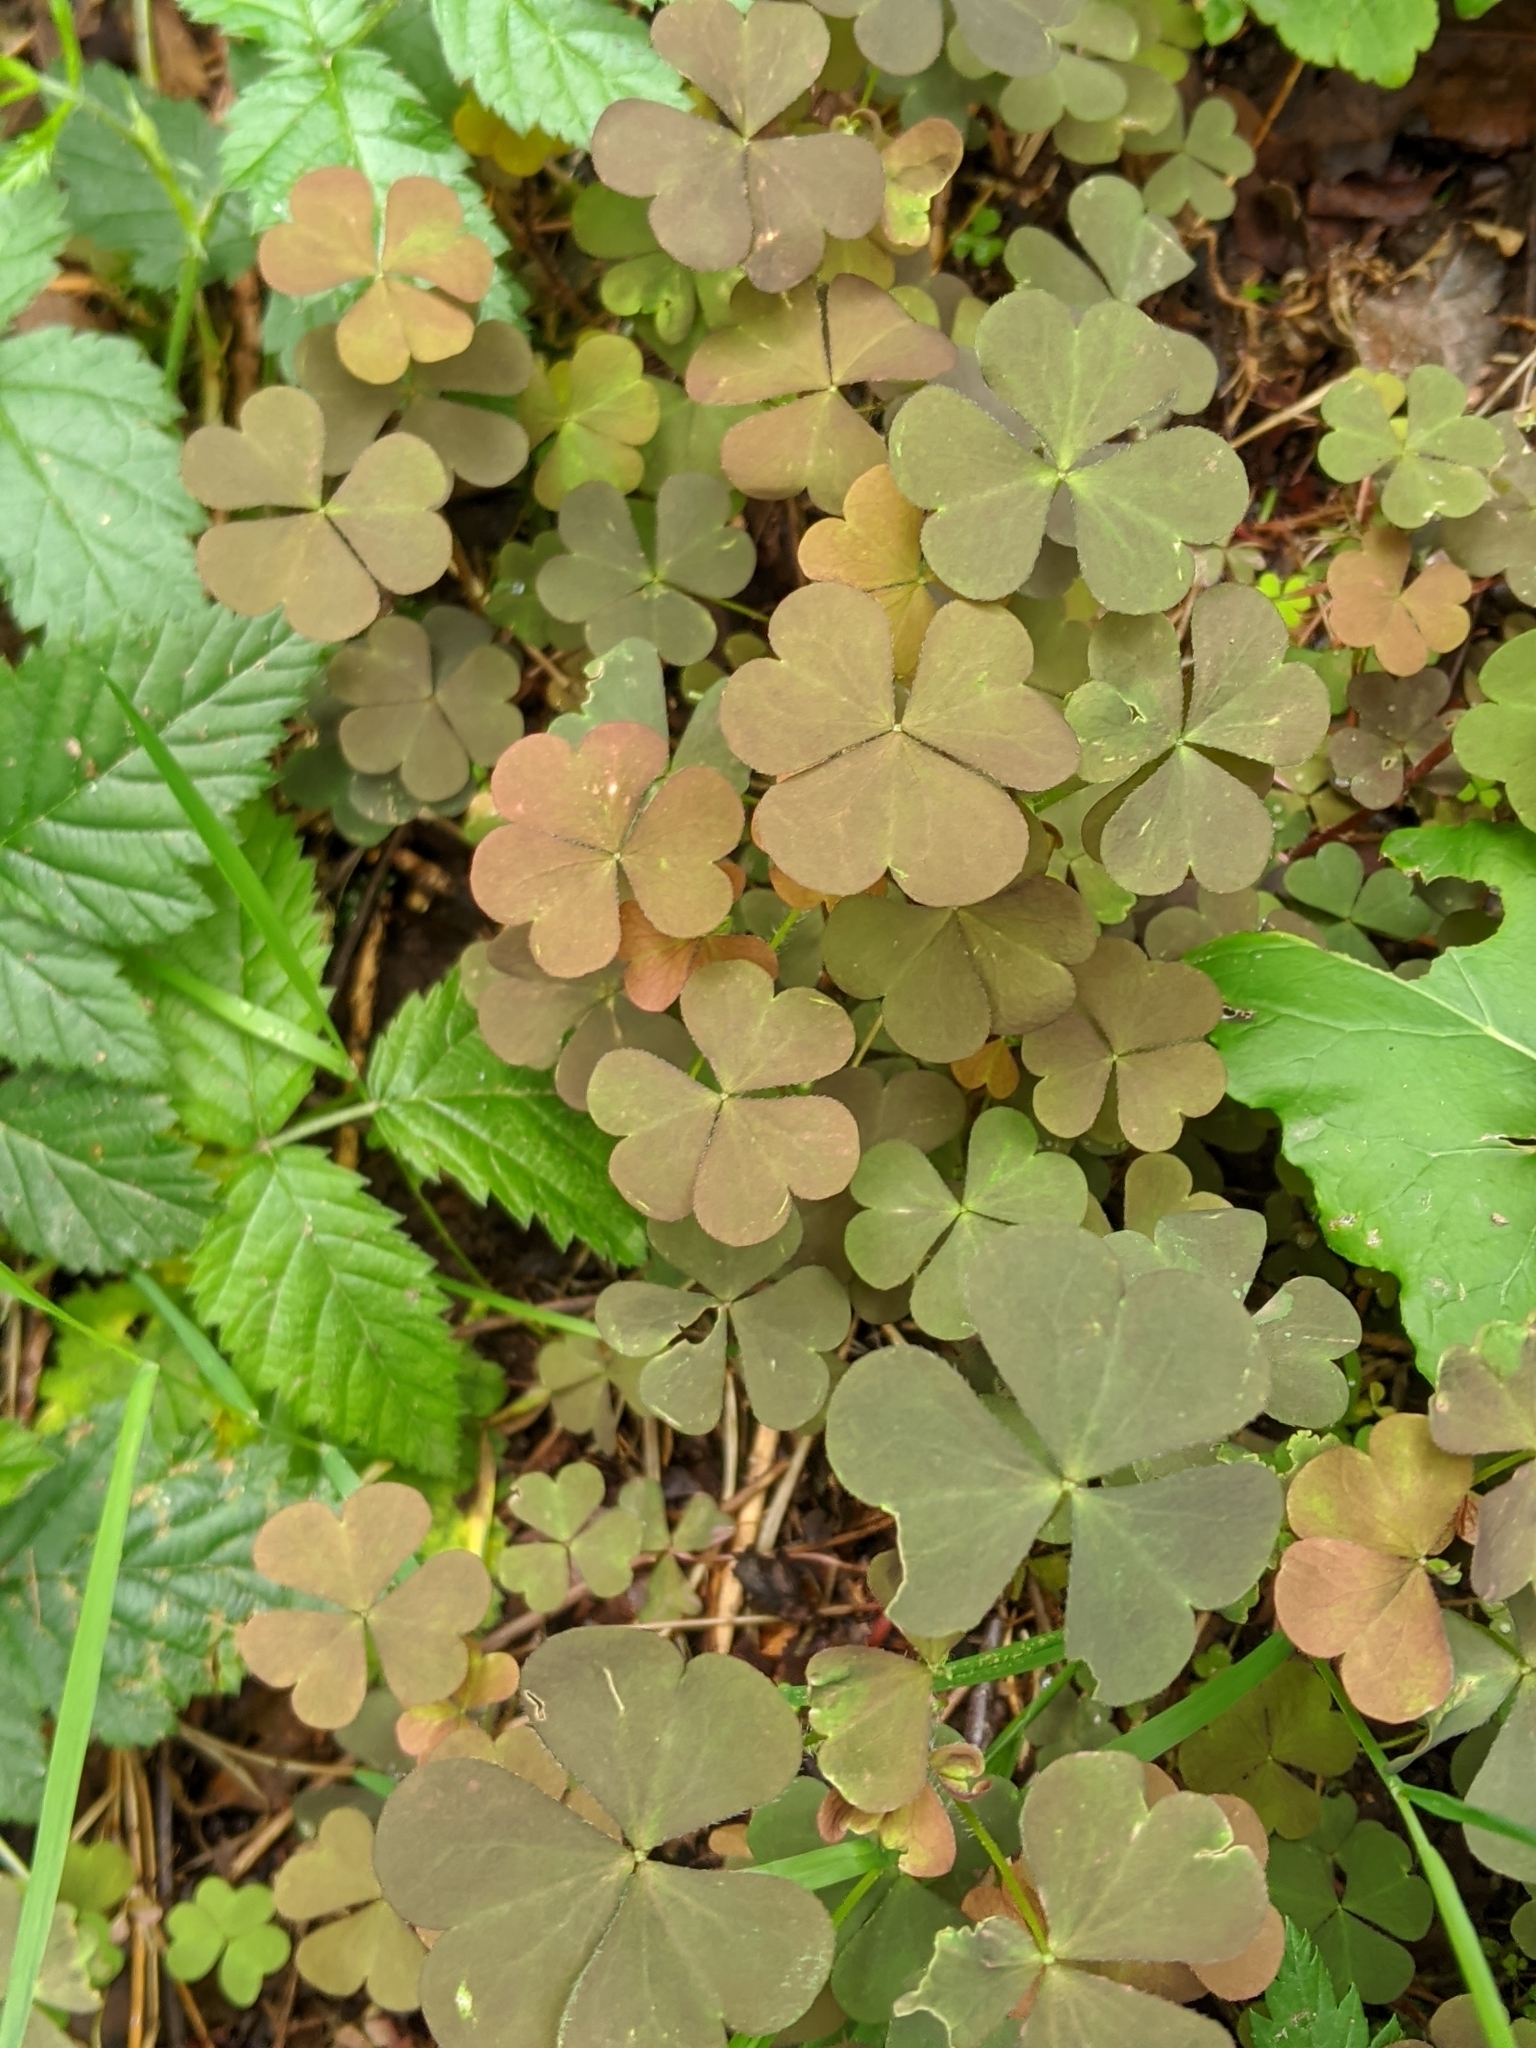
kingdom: Plantae
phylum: Tracheophyta
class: Magnoliopsida
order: Oxalidales
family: Oxalidaceae
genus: Oxalis
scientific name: Oxalis corniculata
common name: Procumbent yellow-sorrel
